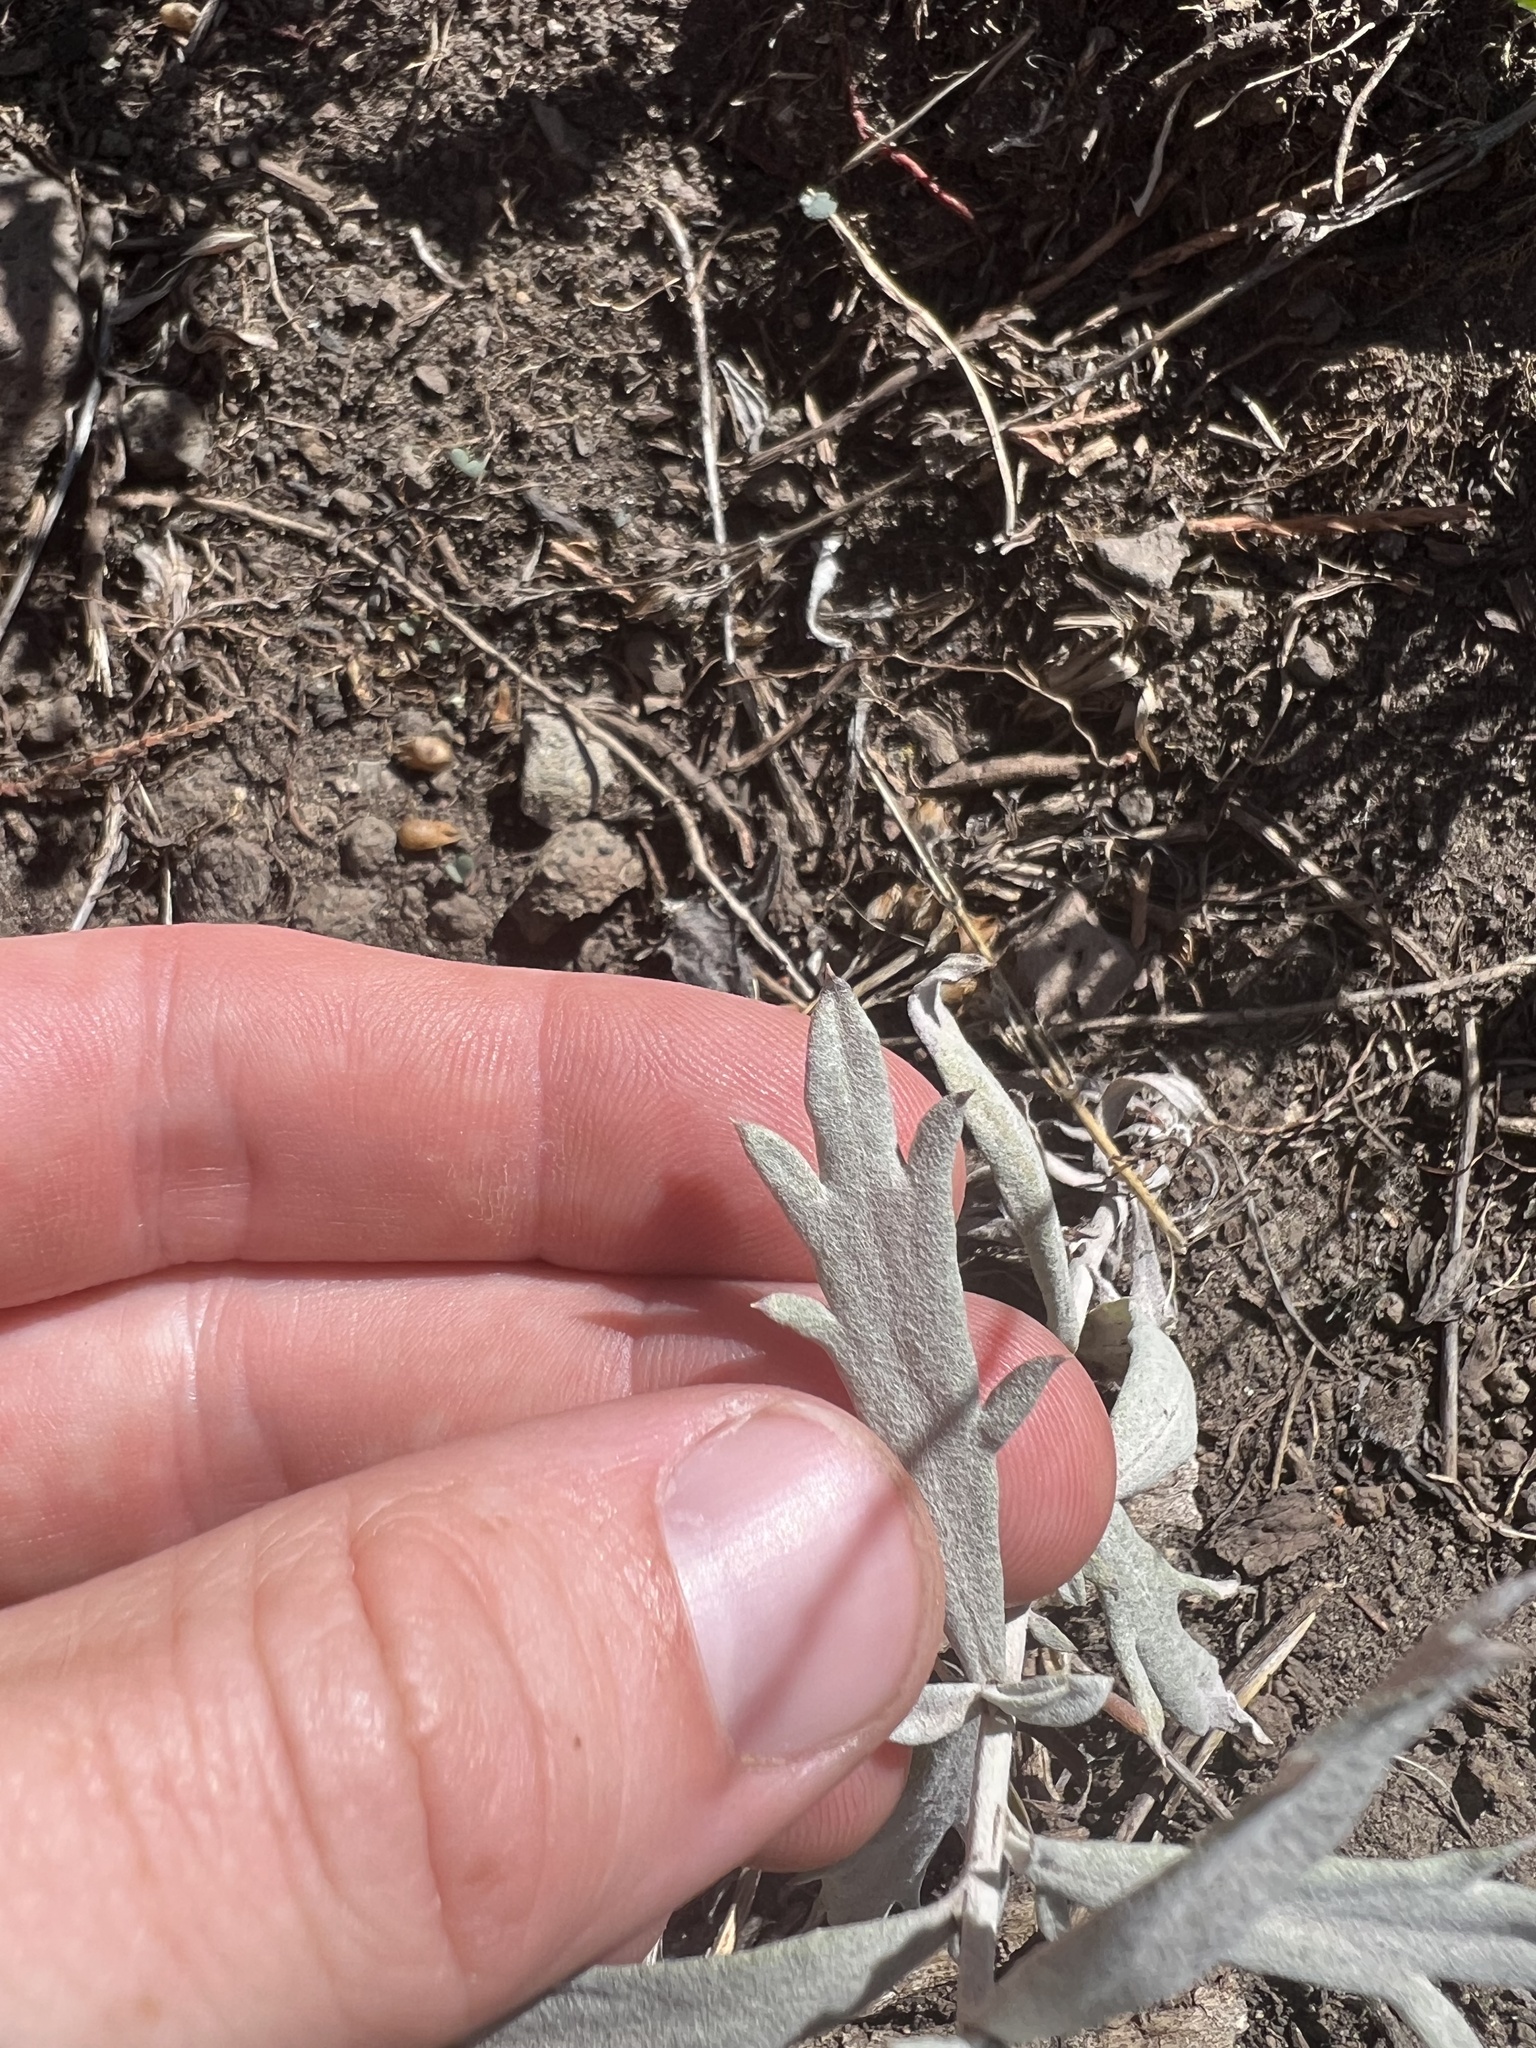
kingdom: Plantae
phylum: Tracheophyta
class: Magnoliopsida
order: Asterales
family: Asteraceae
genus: Artemisia
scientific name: Artemisia ludoviciana
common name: Western mugwort
